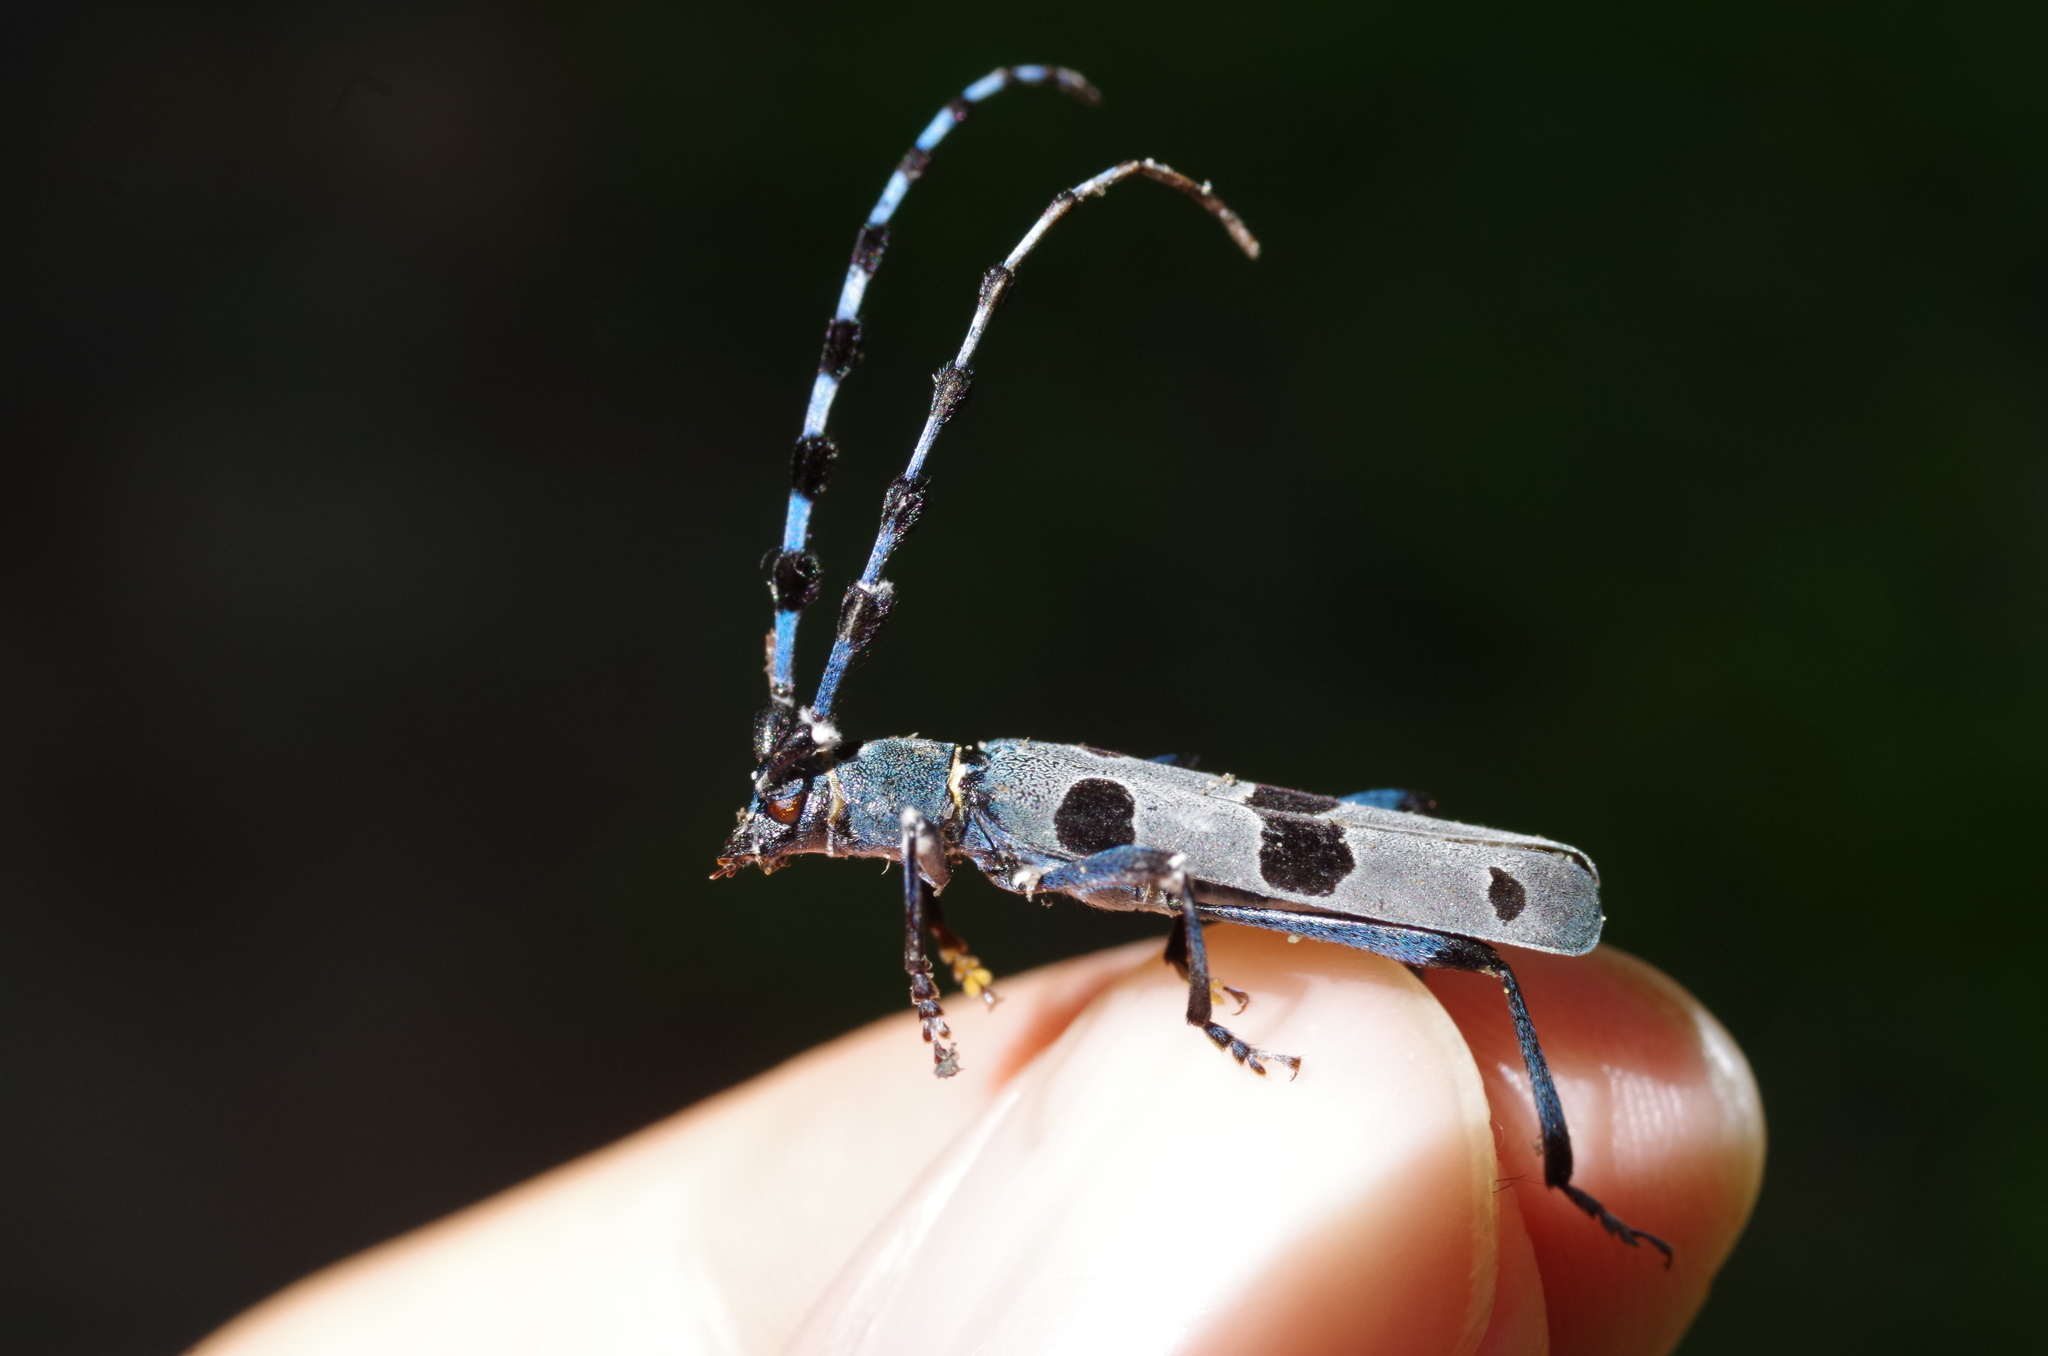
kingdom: Animalia
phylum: Arthropoda
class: Insecta
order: Coleoptera
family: Cerambycidae
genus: Rosalia
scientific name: Rosalia alpina
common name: Rosalia longicorn
